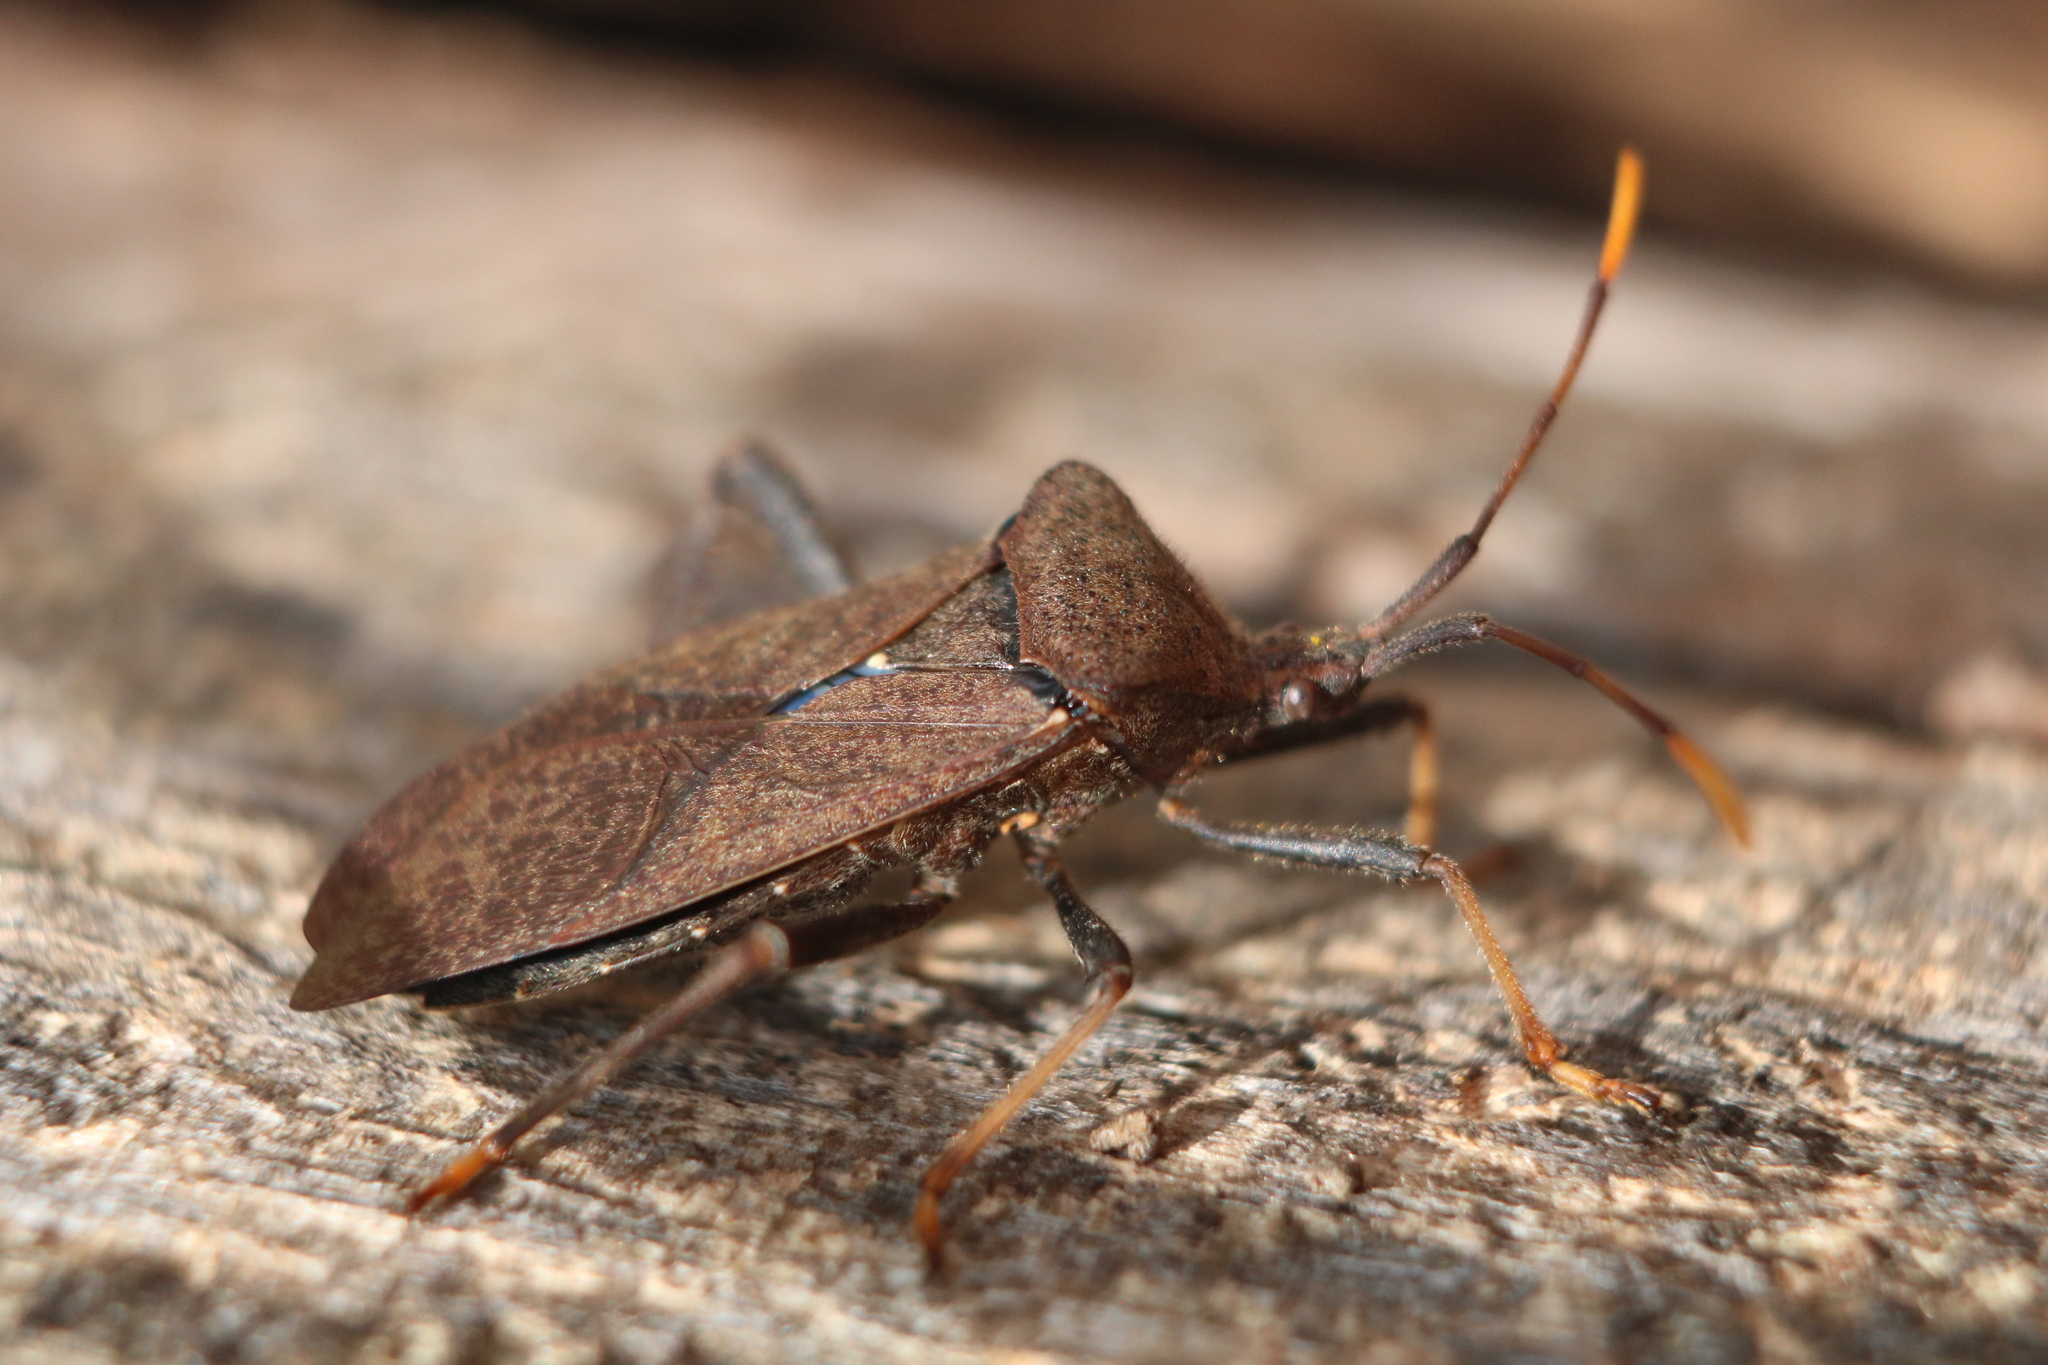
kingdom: Animalia
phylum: Arthropoda
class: Insecta
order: Hemiptera
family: Coreidae
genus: Acanthocephala
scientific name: Acanthocephala terminalis
